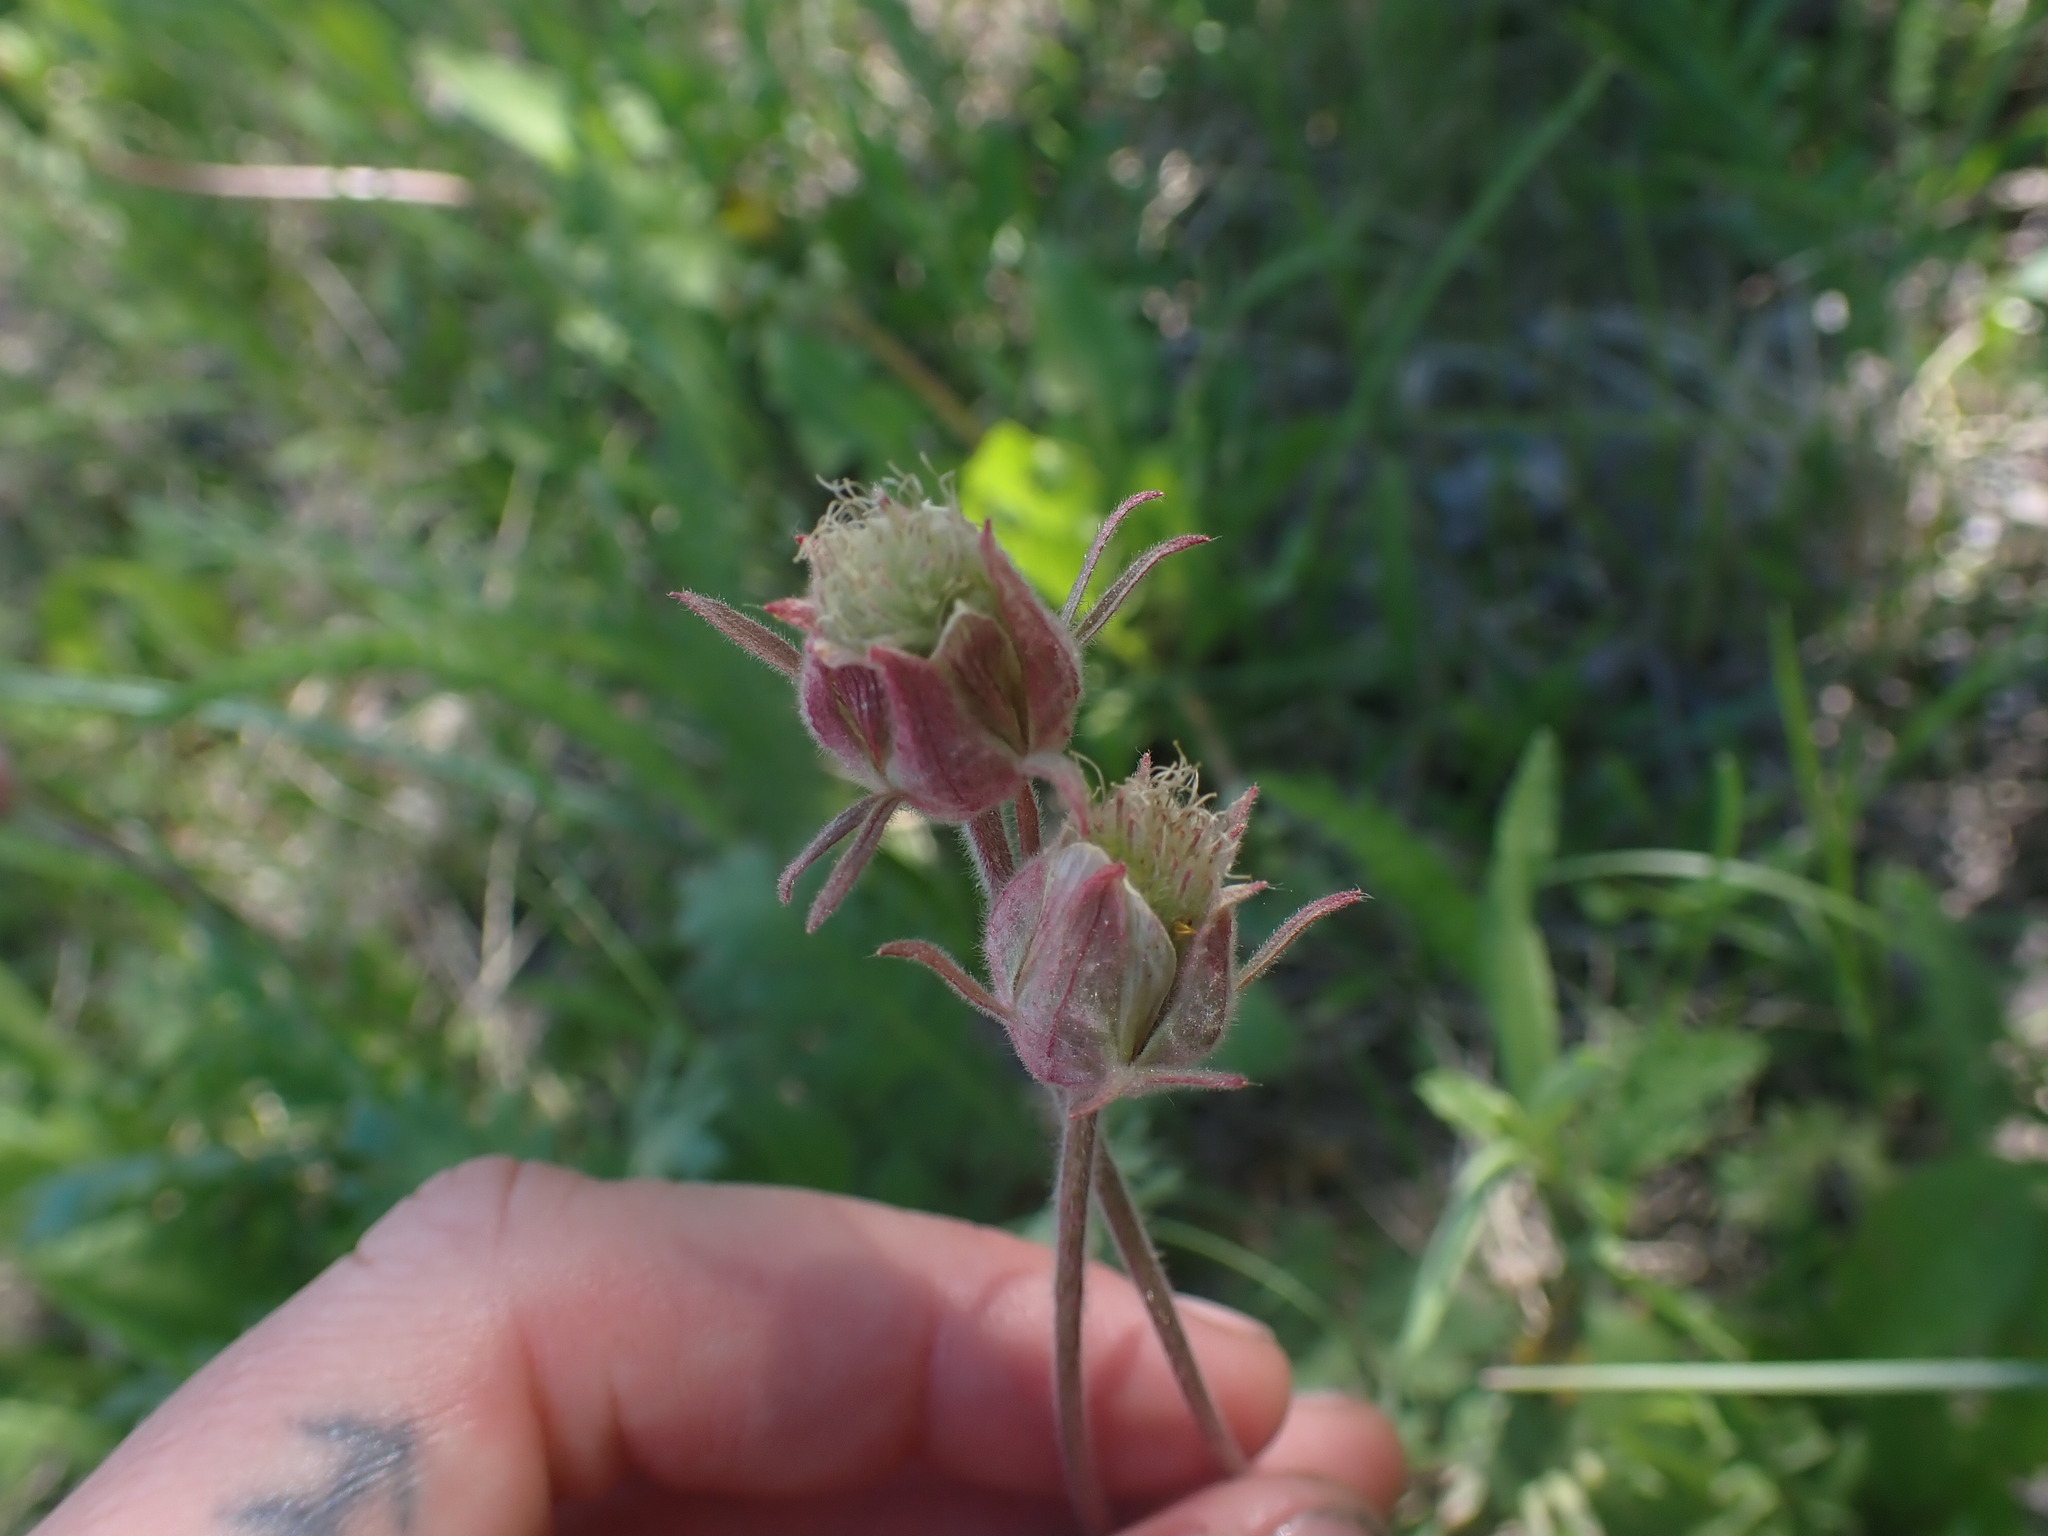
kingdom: Plantae
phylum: Tracheophyta
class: Magnoliopsida
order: Rosales
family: Rosaceae
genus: Geum
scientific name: Geum triflorum
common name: Old man's whiskers
